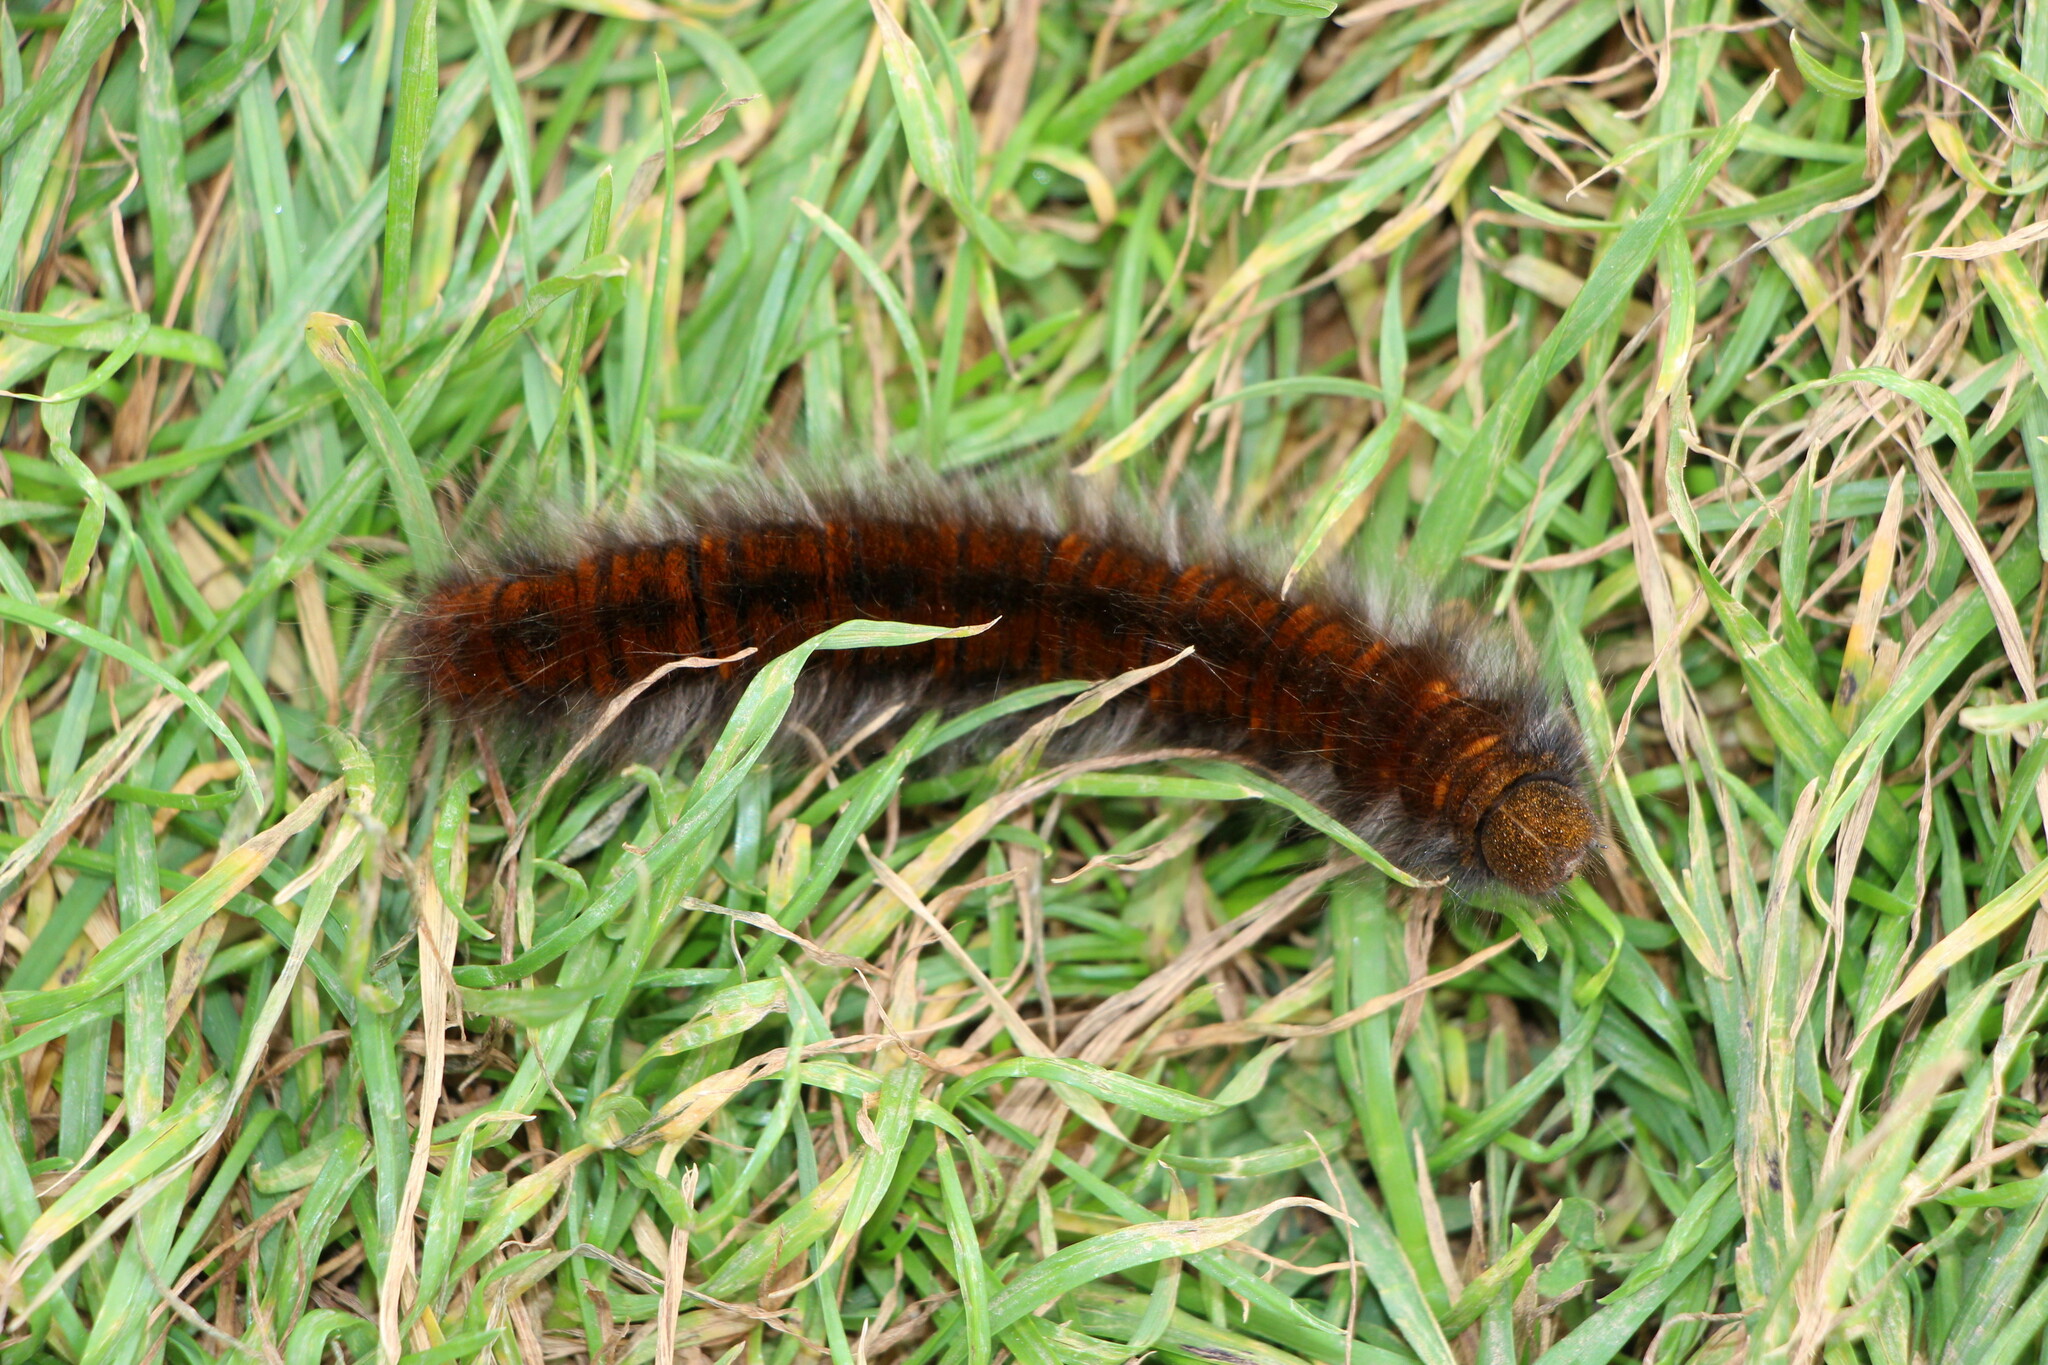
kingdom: Animalia
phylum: Arthropoda
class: Insecta
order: Lepidoptera
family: Lasiocampidae
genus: Macrothylacia
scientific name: Macrothylacia rubi
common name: Fox moth
